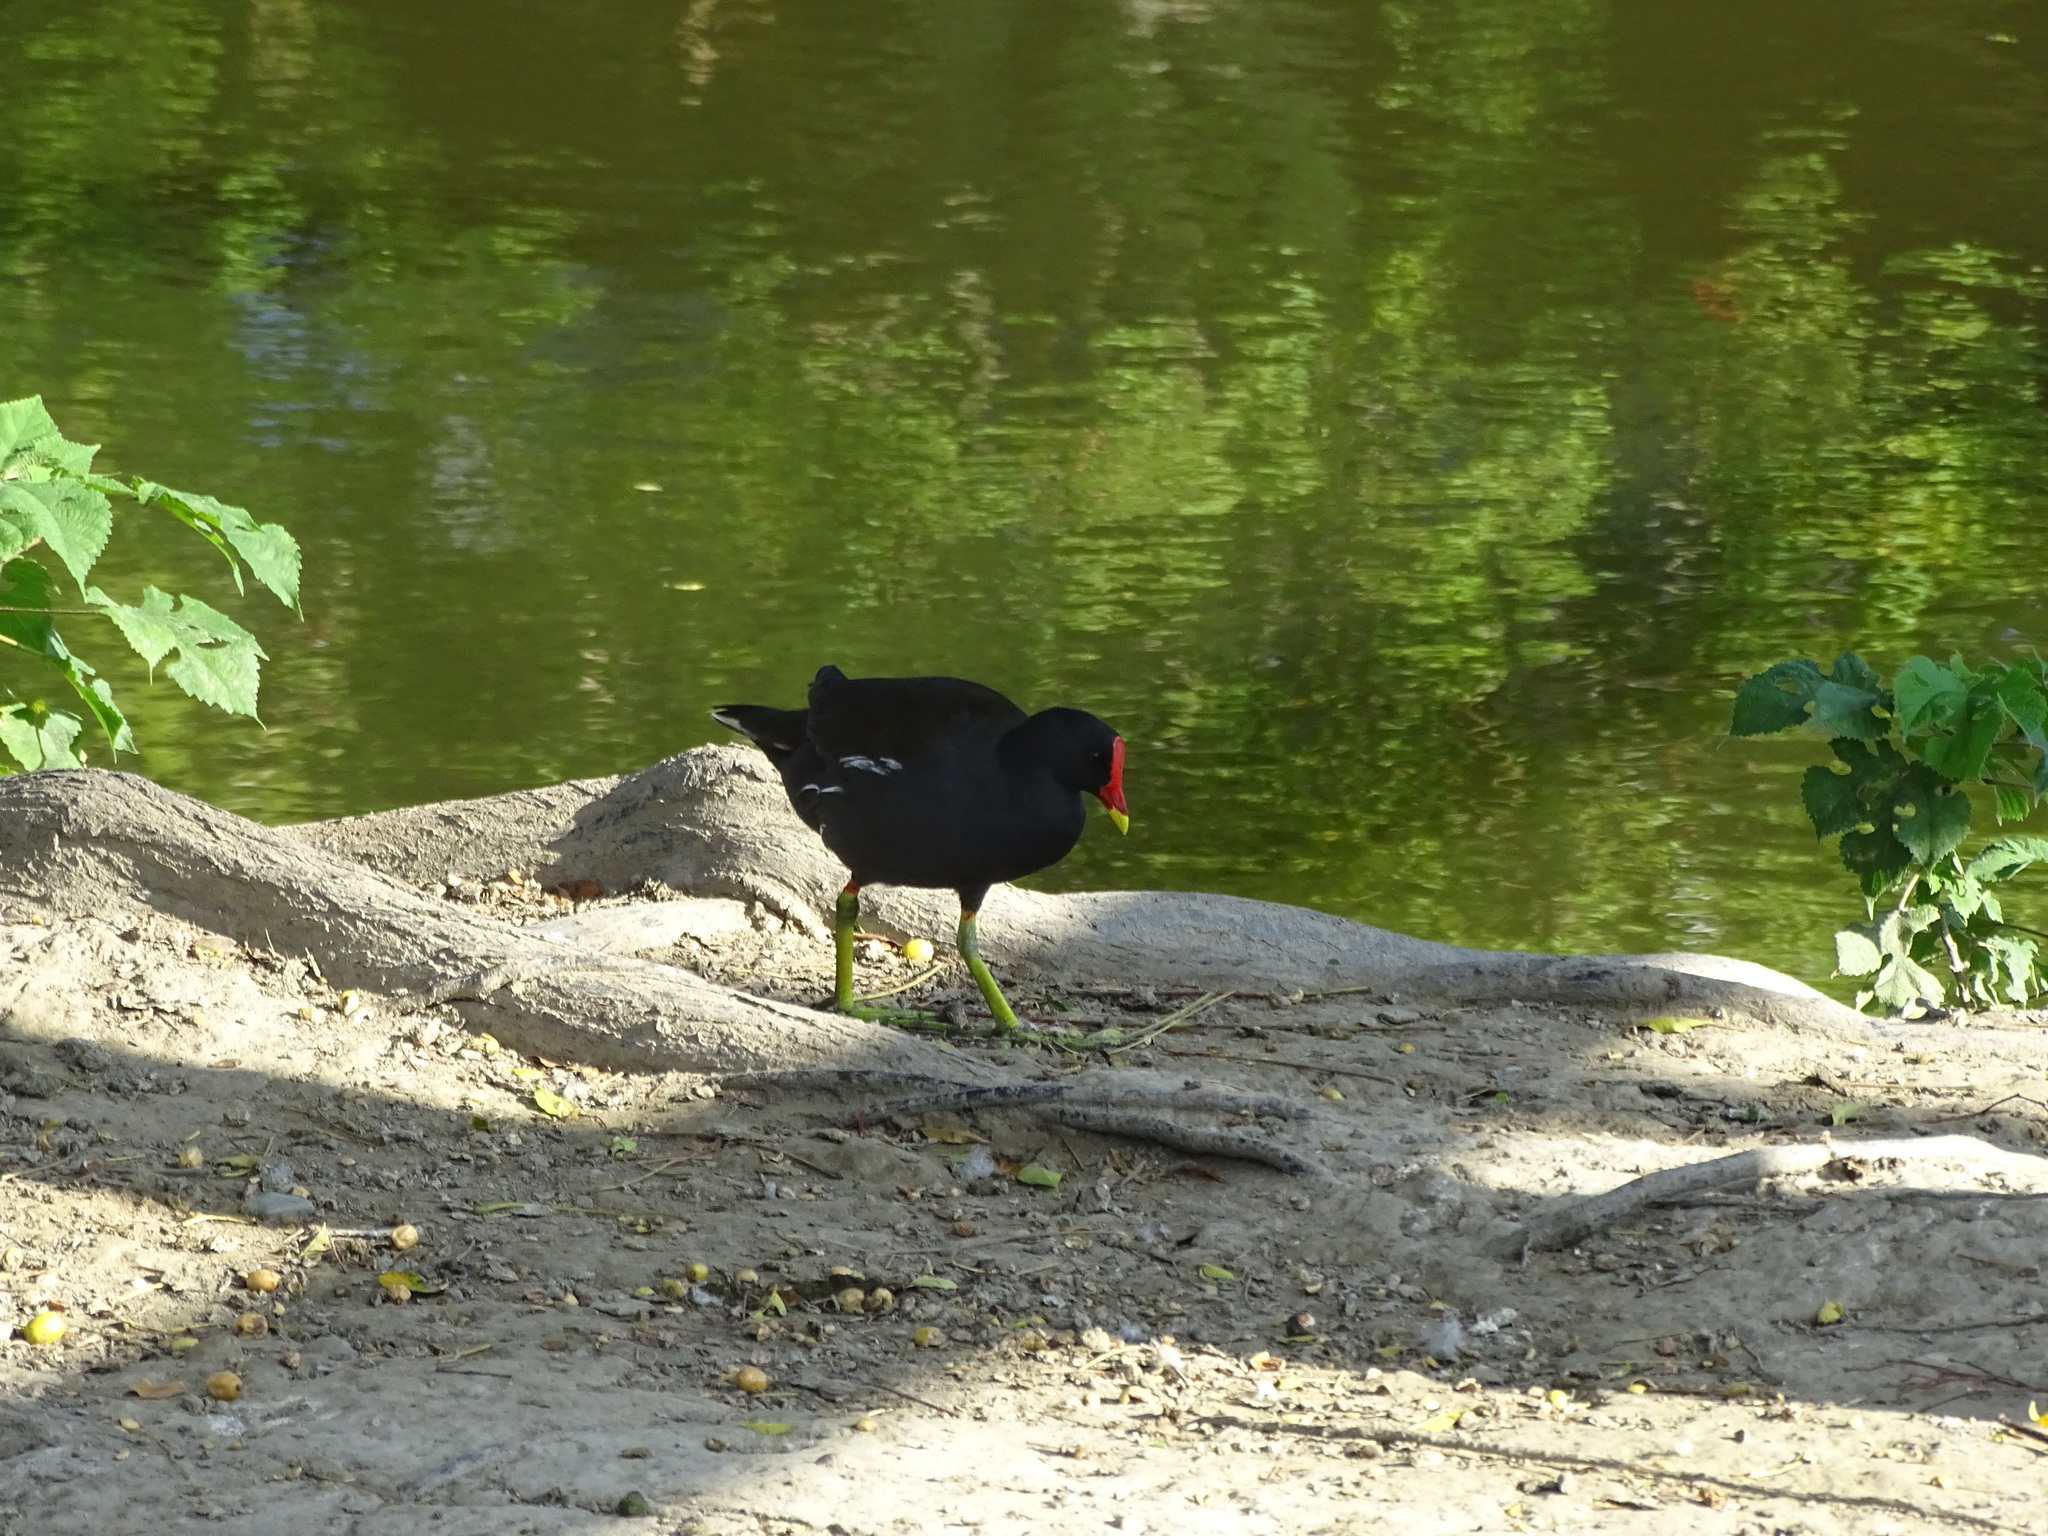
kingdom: Animalia
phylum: Chordata
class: Aves
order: Gruiformes
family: Rallidae
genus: Gallinula
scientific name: Gallinula chloropus
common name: Common moorhen
